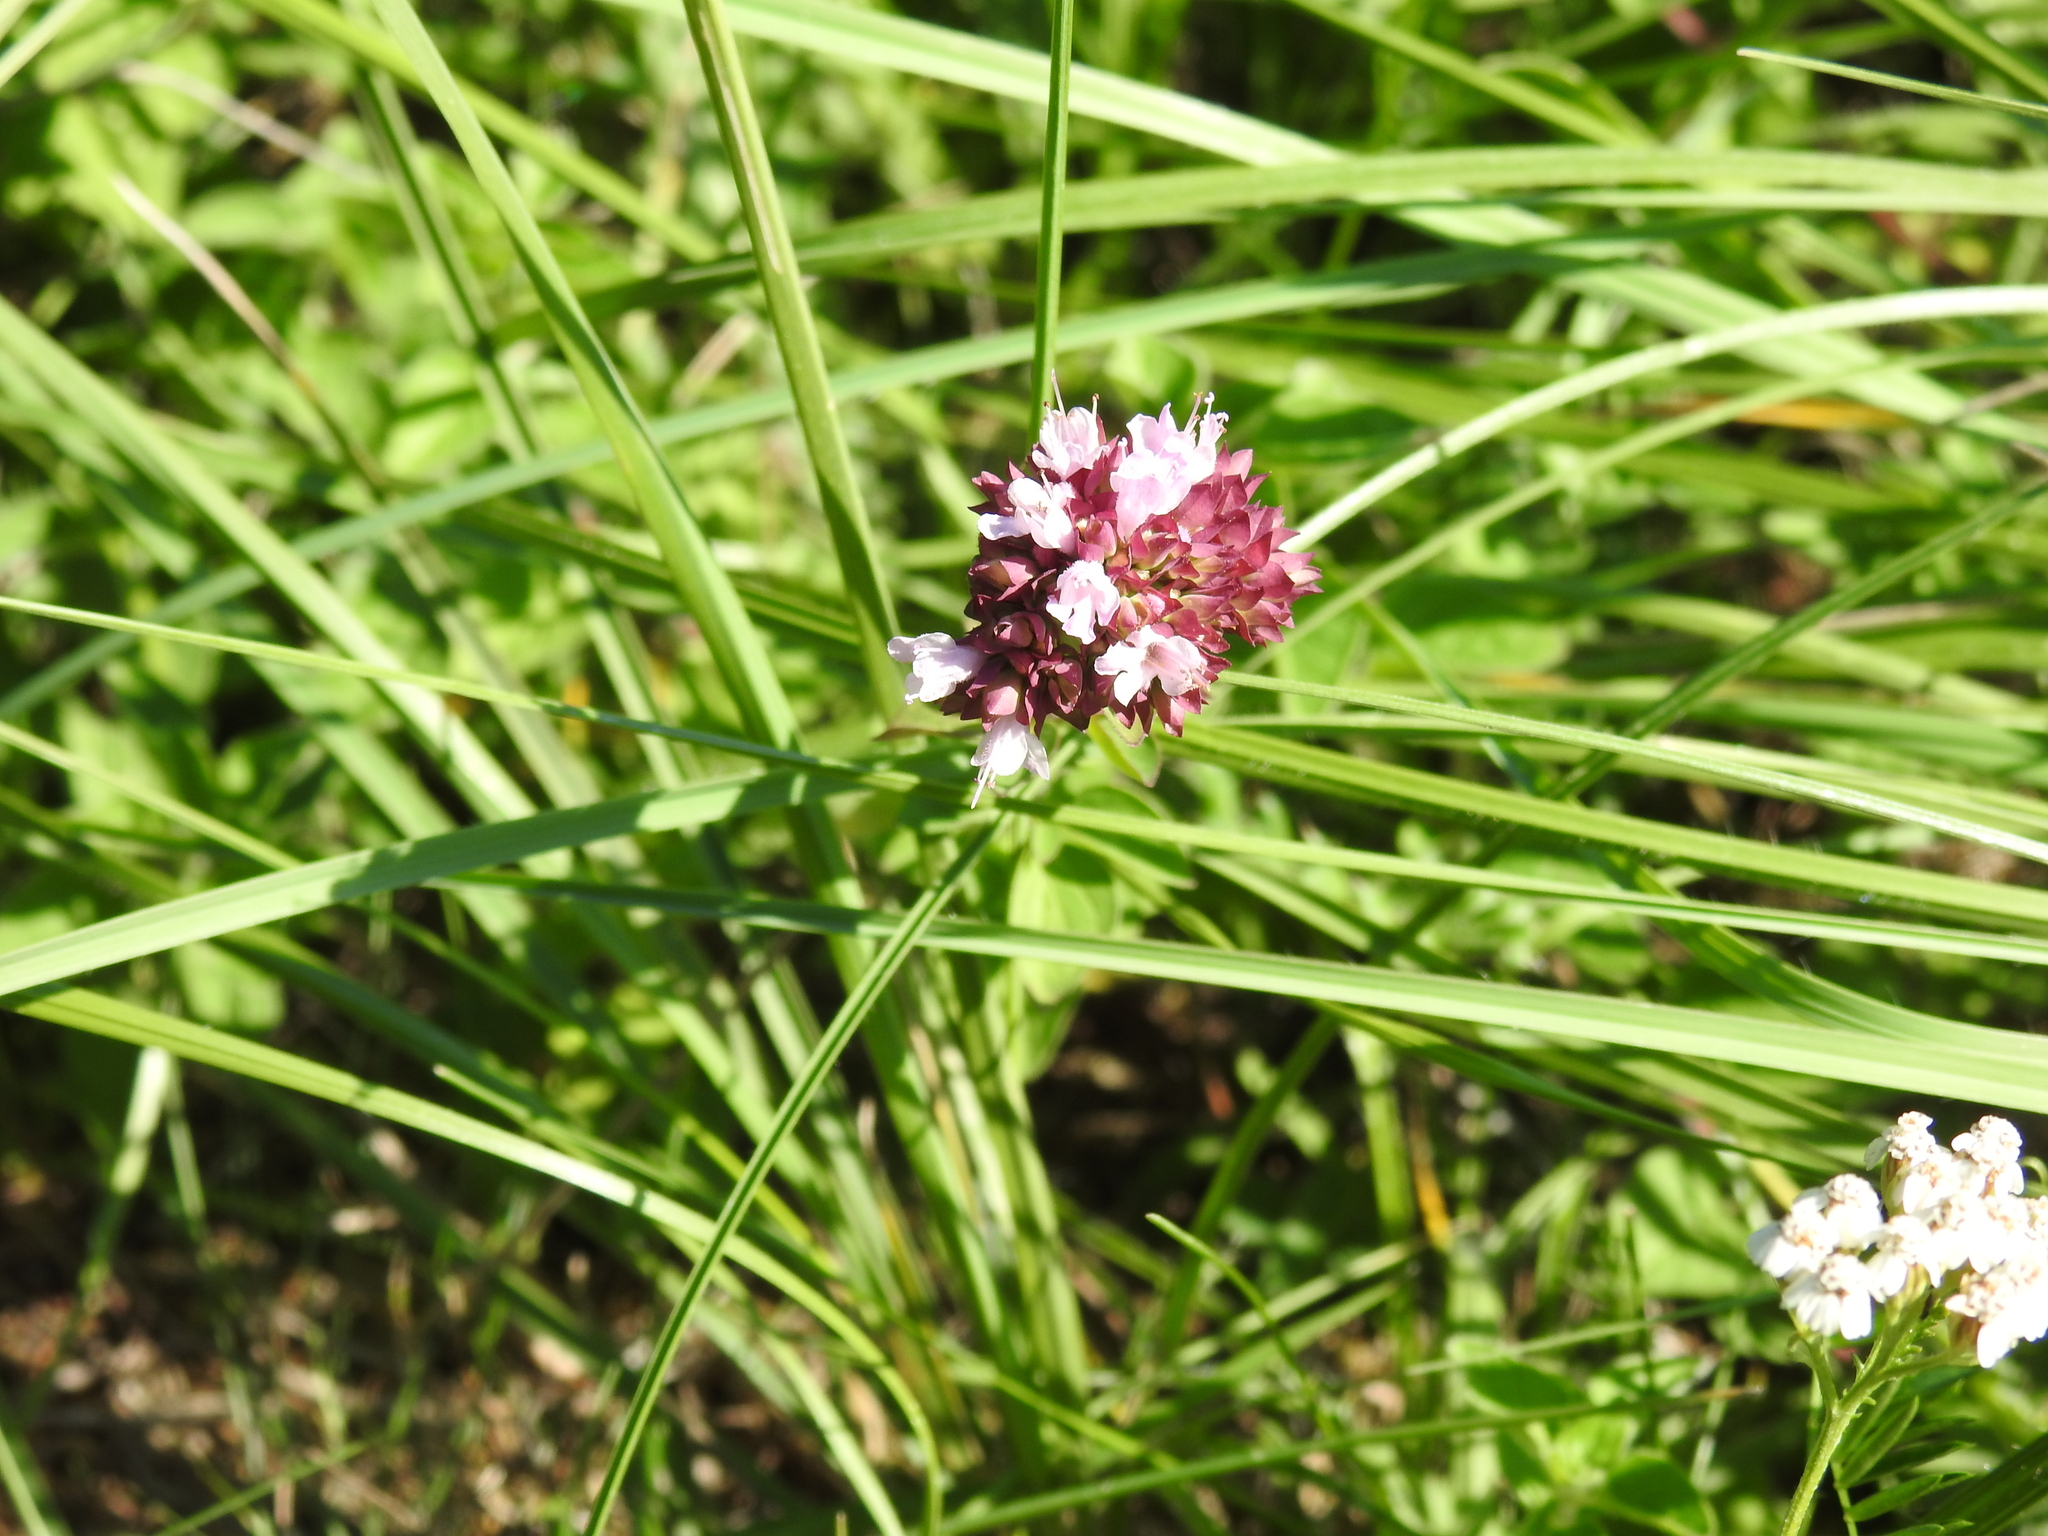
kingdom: Plantae
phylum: Tracheophyta
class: Magnoliopsida
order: Lamiales
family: Lamiaceae
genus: Origanum
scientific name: Origanum vulgare
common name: Wild marjoram
